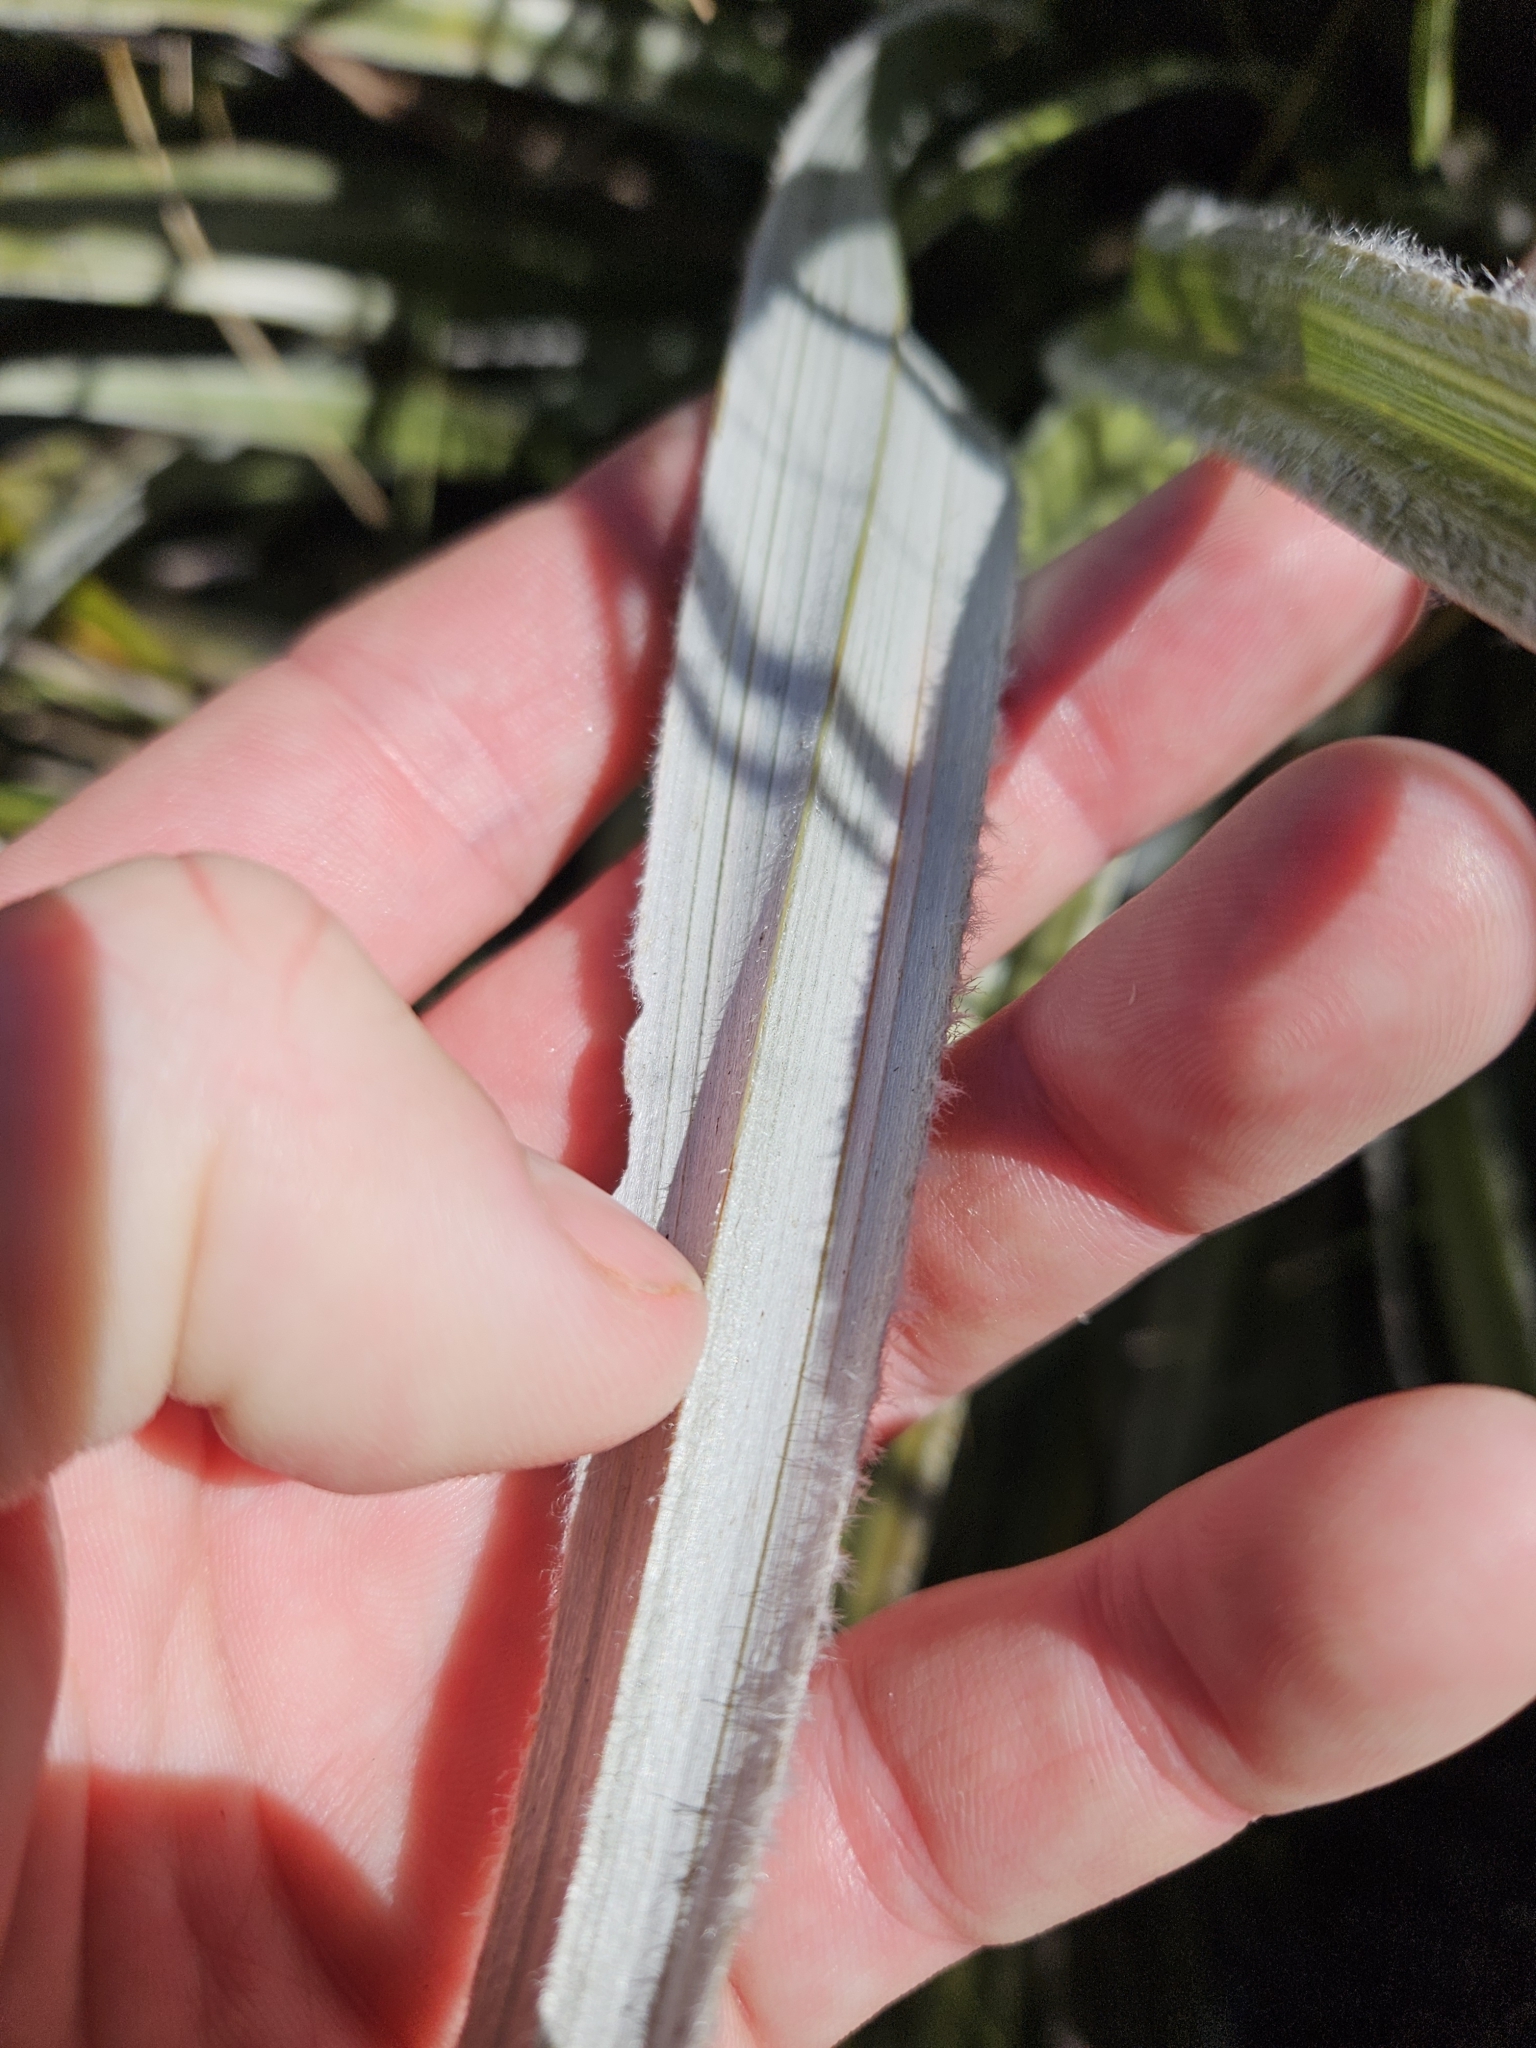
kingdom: Plantae
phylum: Tracheophyta
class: Liliopsida
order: Asparagales
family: Asteliaceae
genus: Astelia
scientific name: Astelia nervosa
